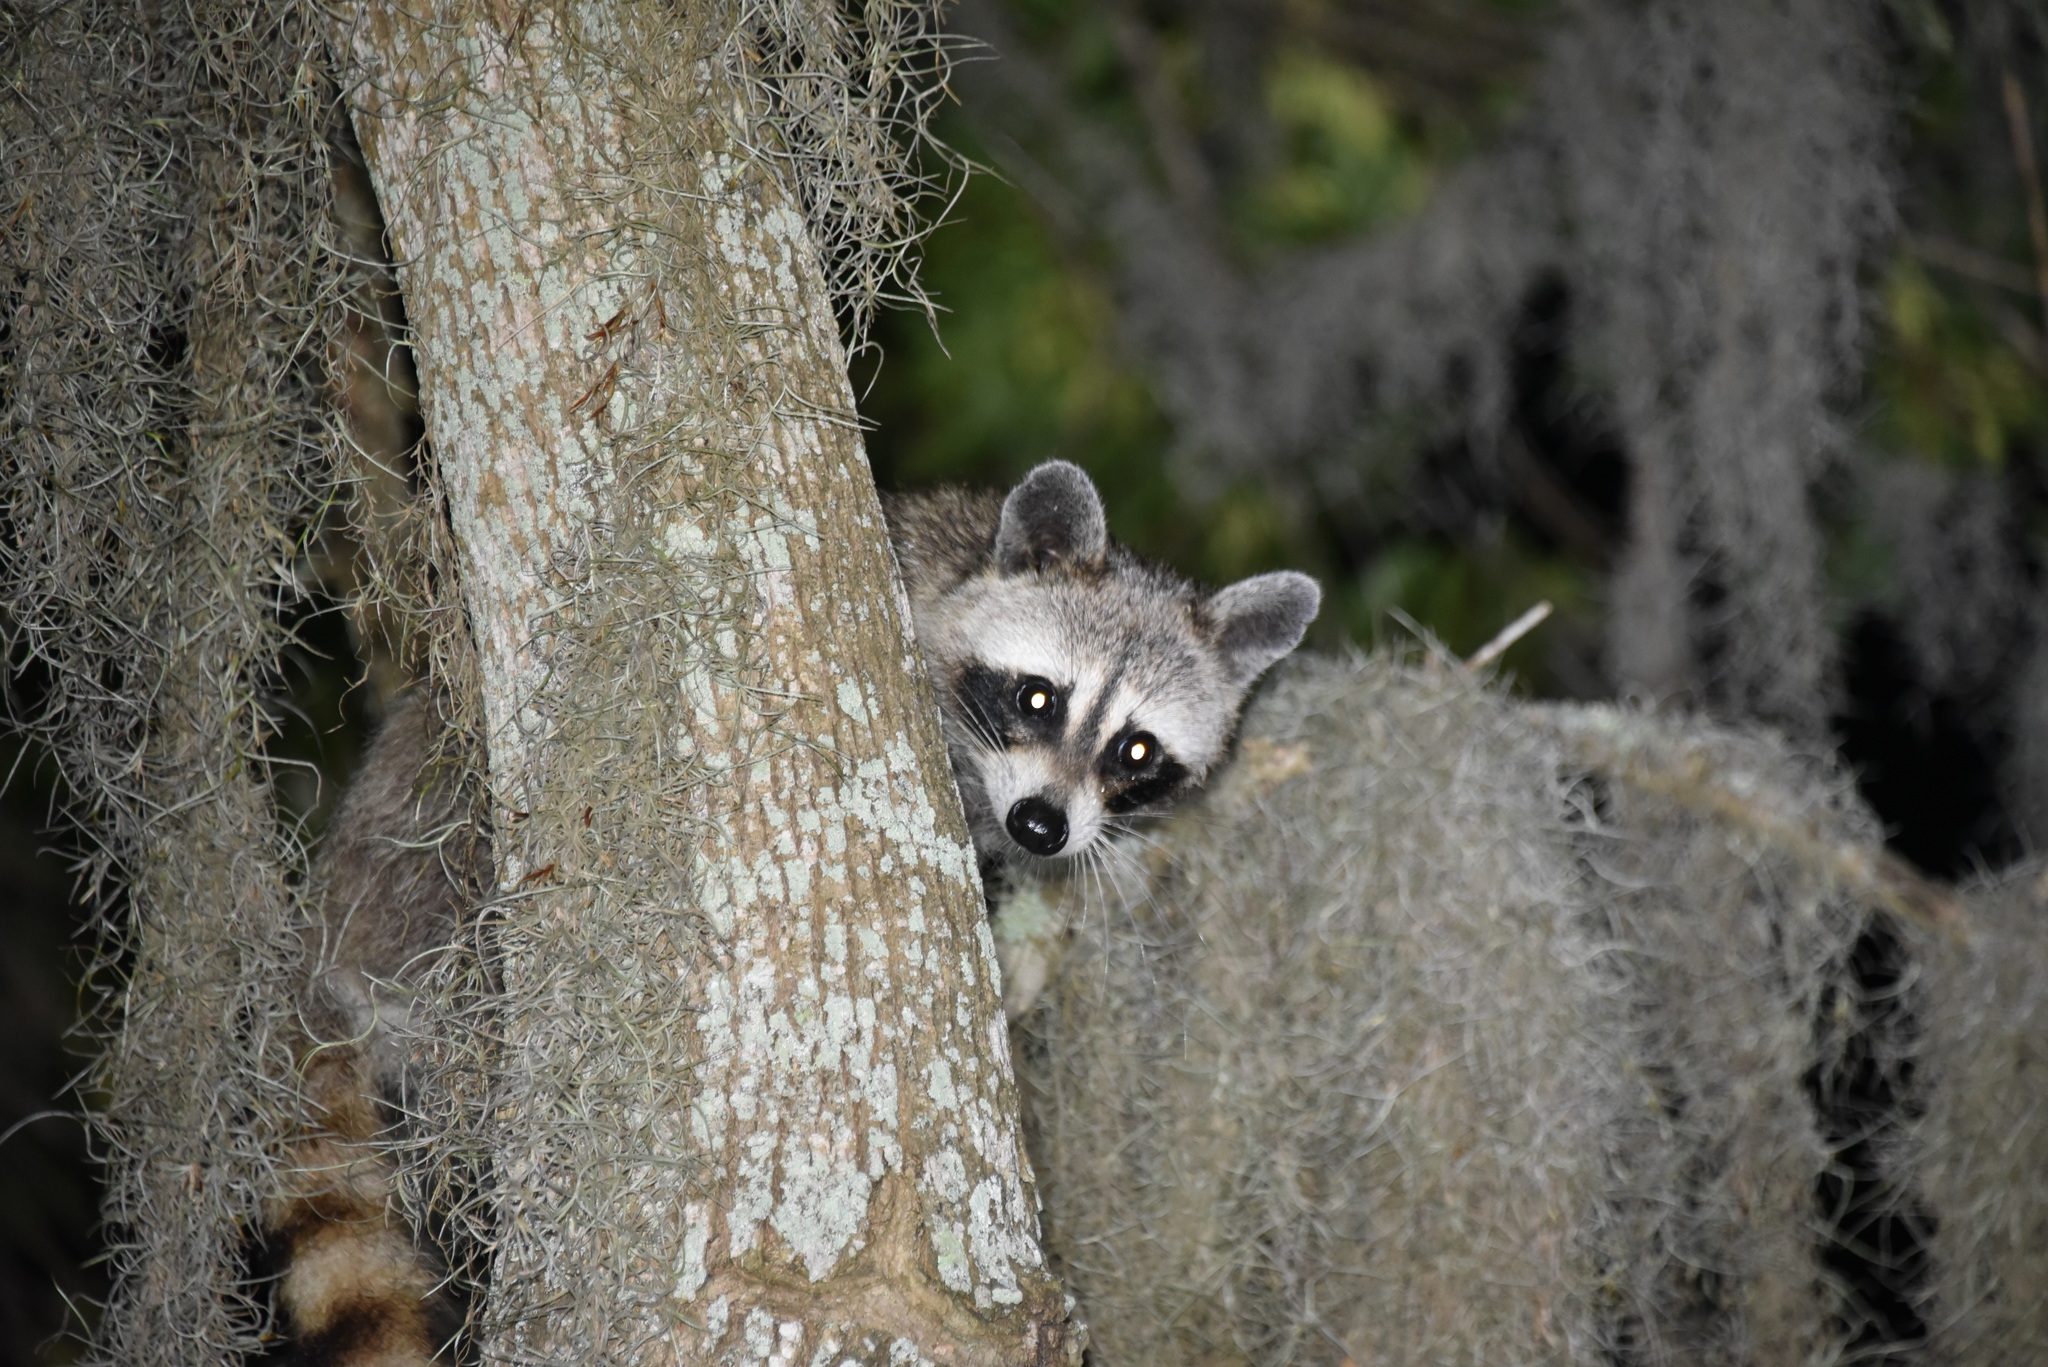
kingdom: Animalia
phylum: Chordata
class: Mammalia
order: Carnivora
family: Procyonidae
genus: Procyon
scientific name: Procyon lotor
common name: Raccoon
